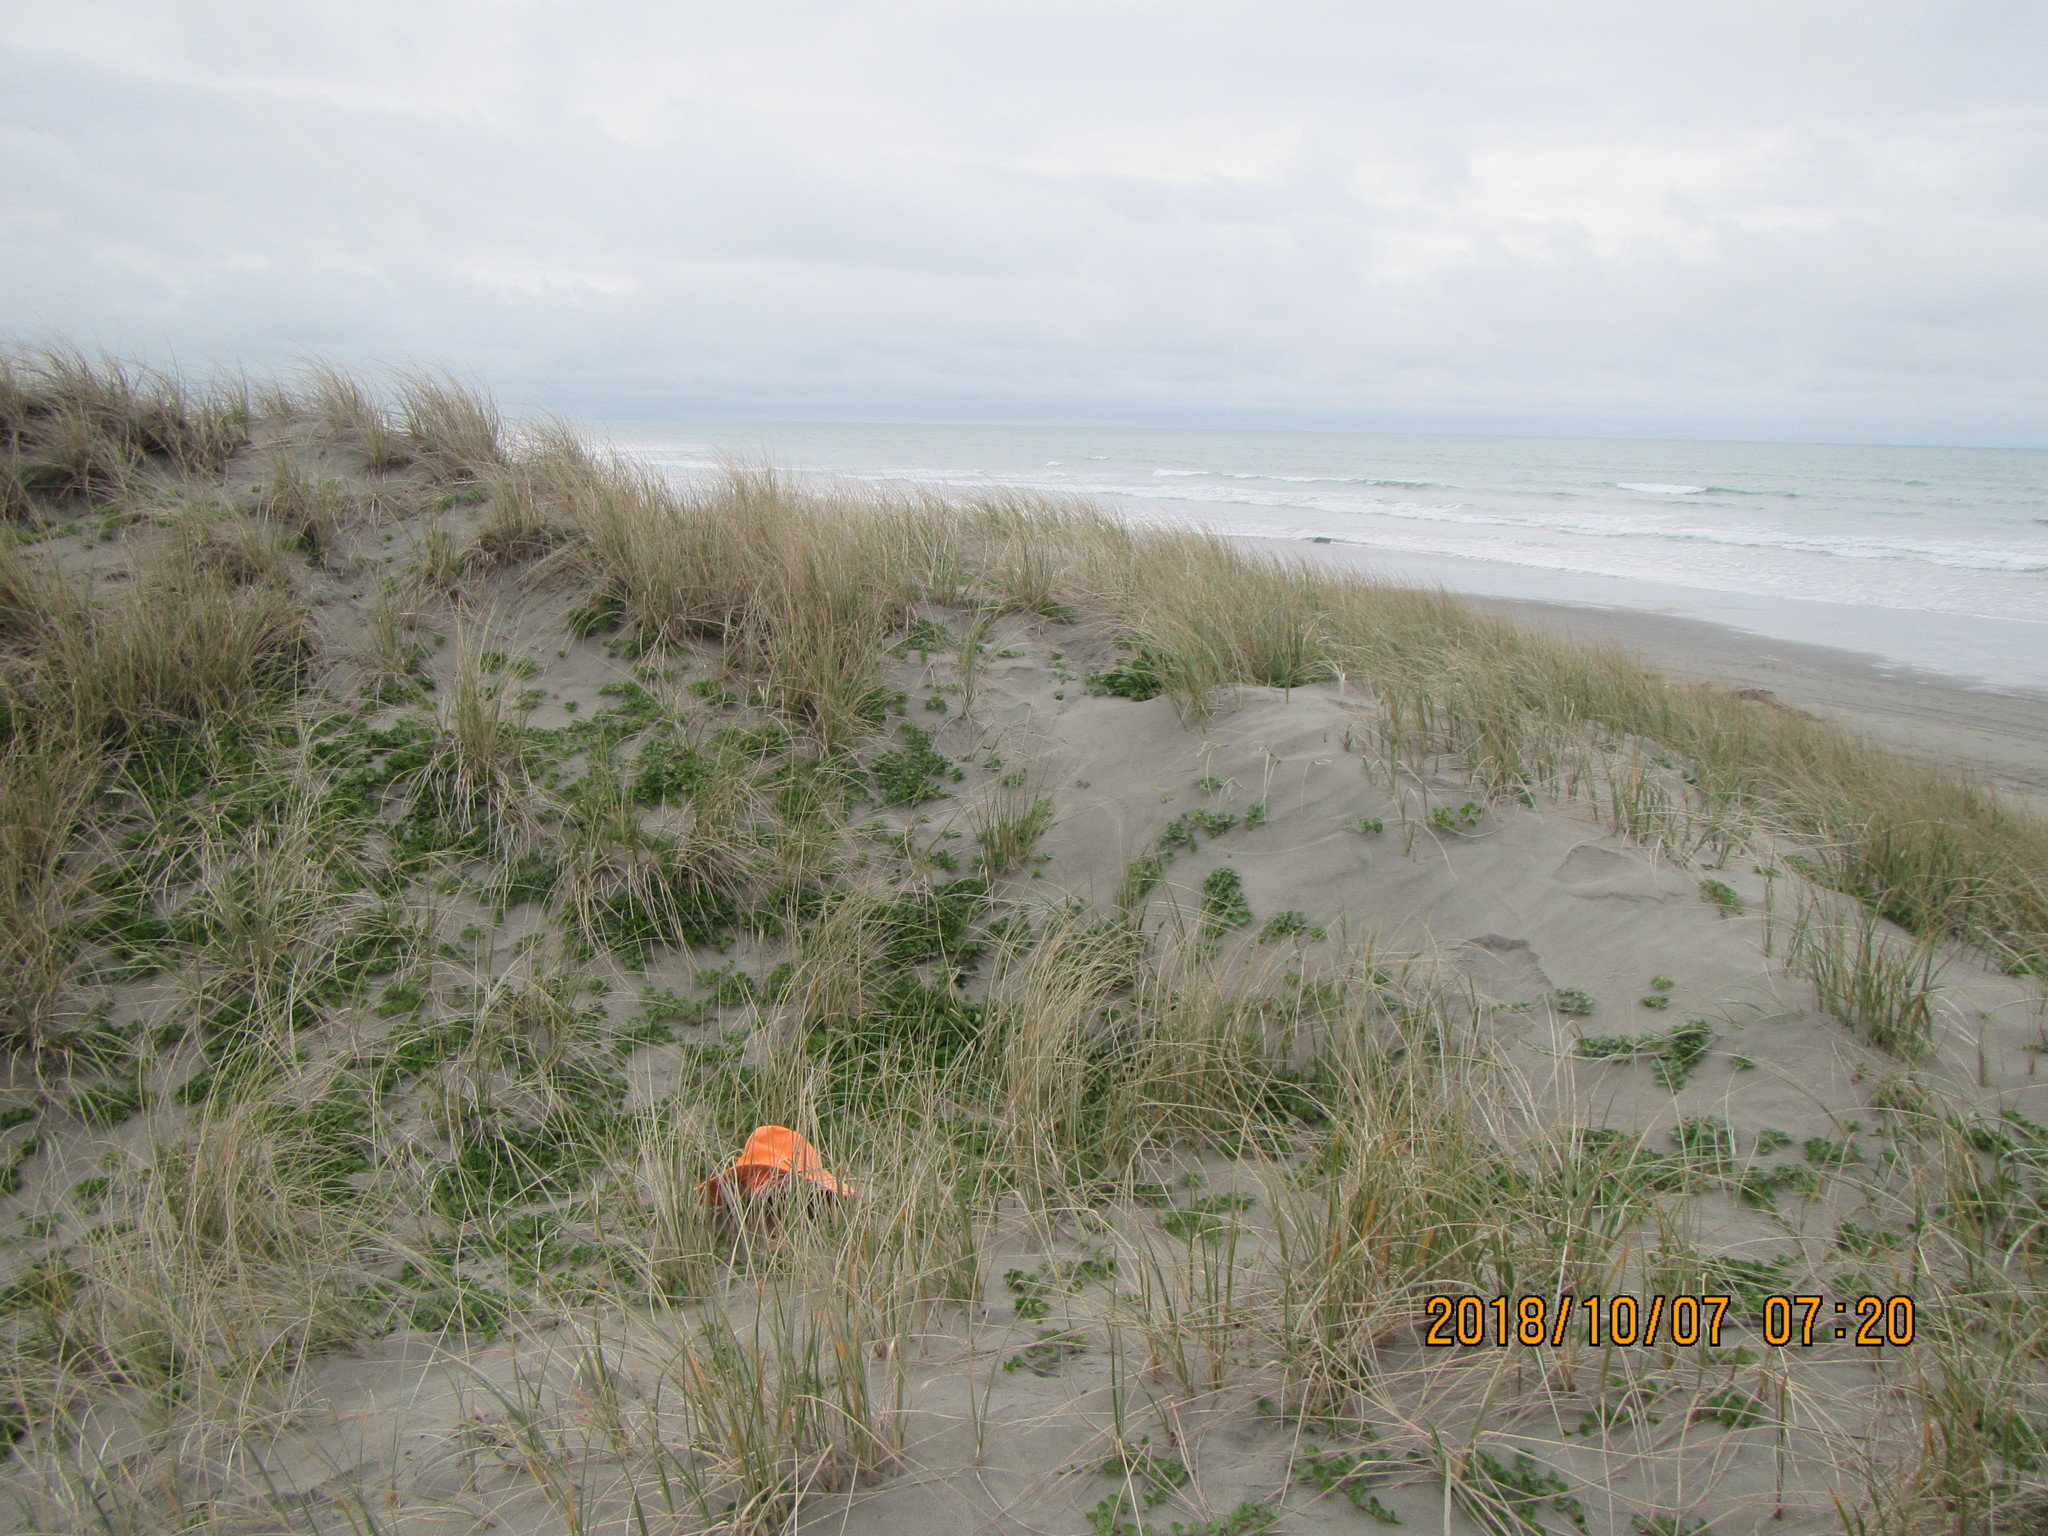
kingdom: Plantae
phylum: Tracheophyta
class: Magnoliopsida
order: Solanales
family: Convolvulaceae
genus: Calystegia
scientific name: Calystegia soldanella
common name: Sea bindweed
